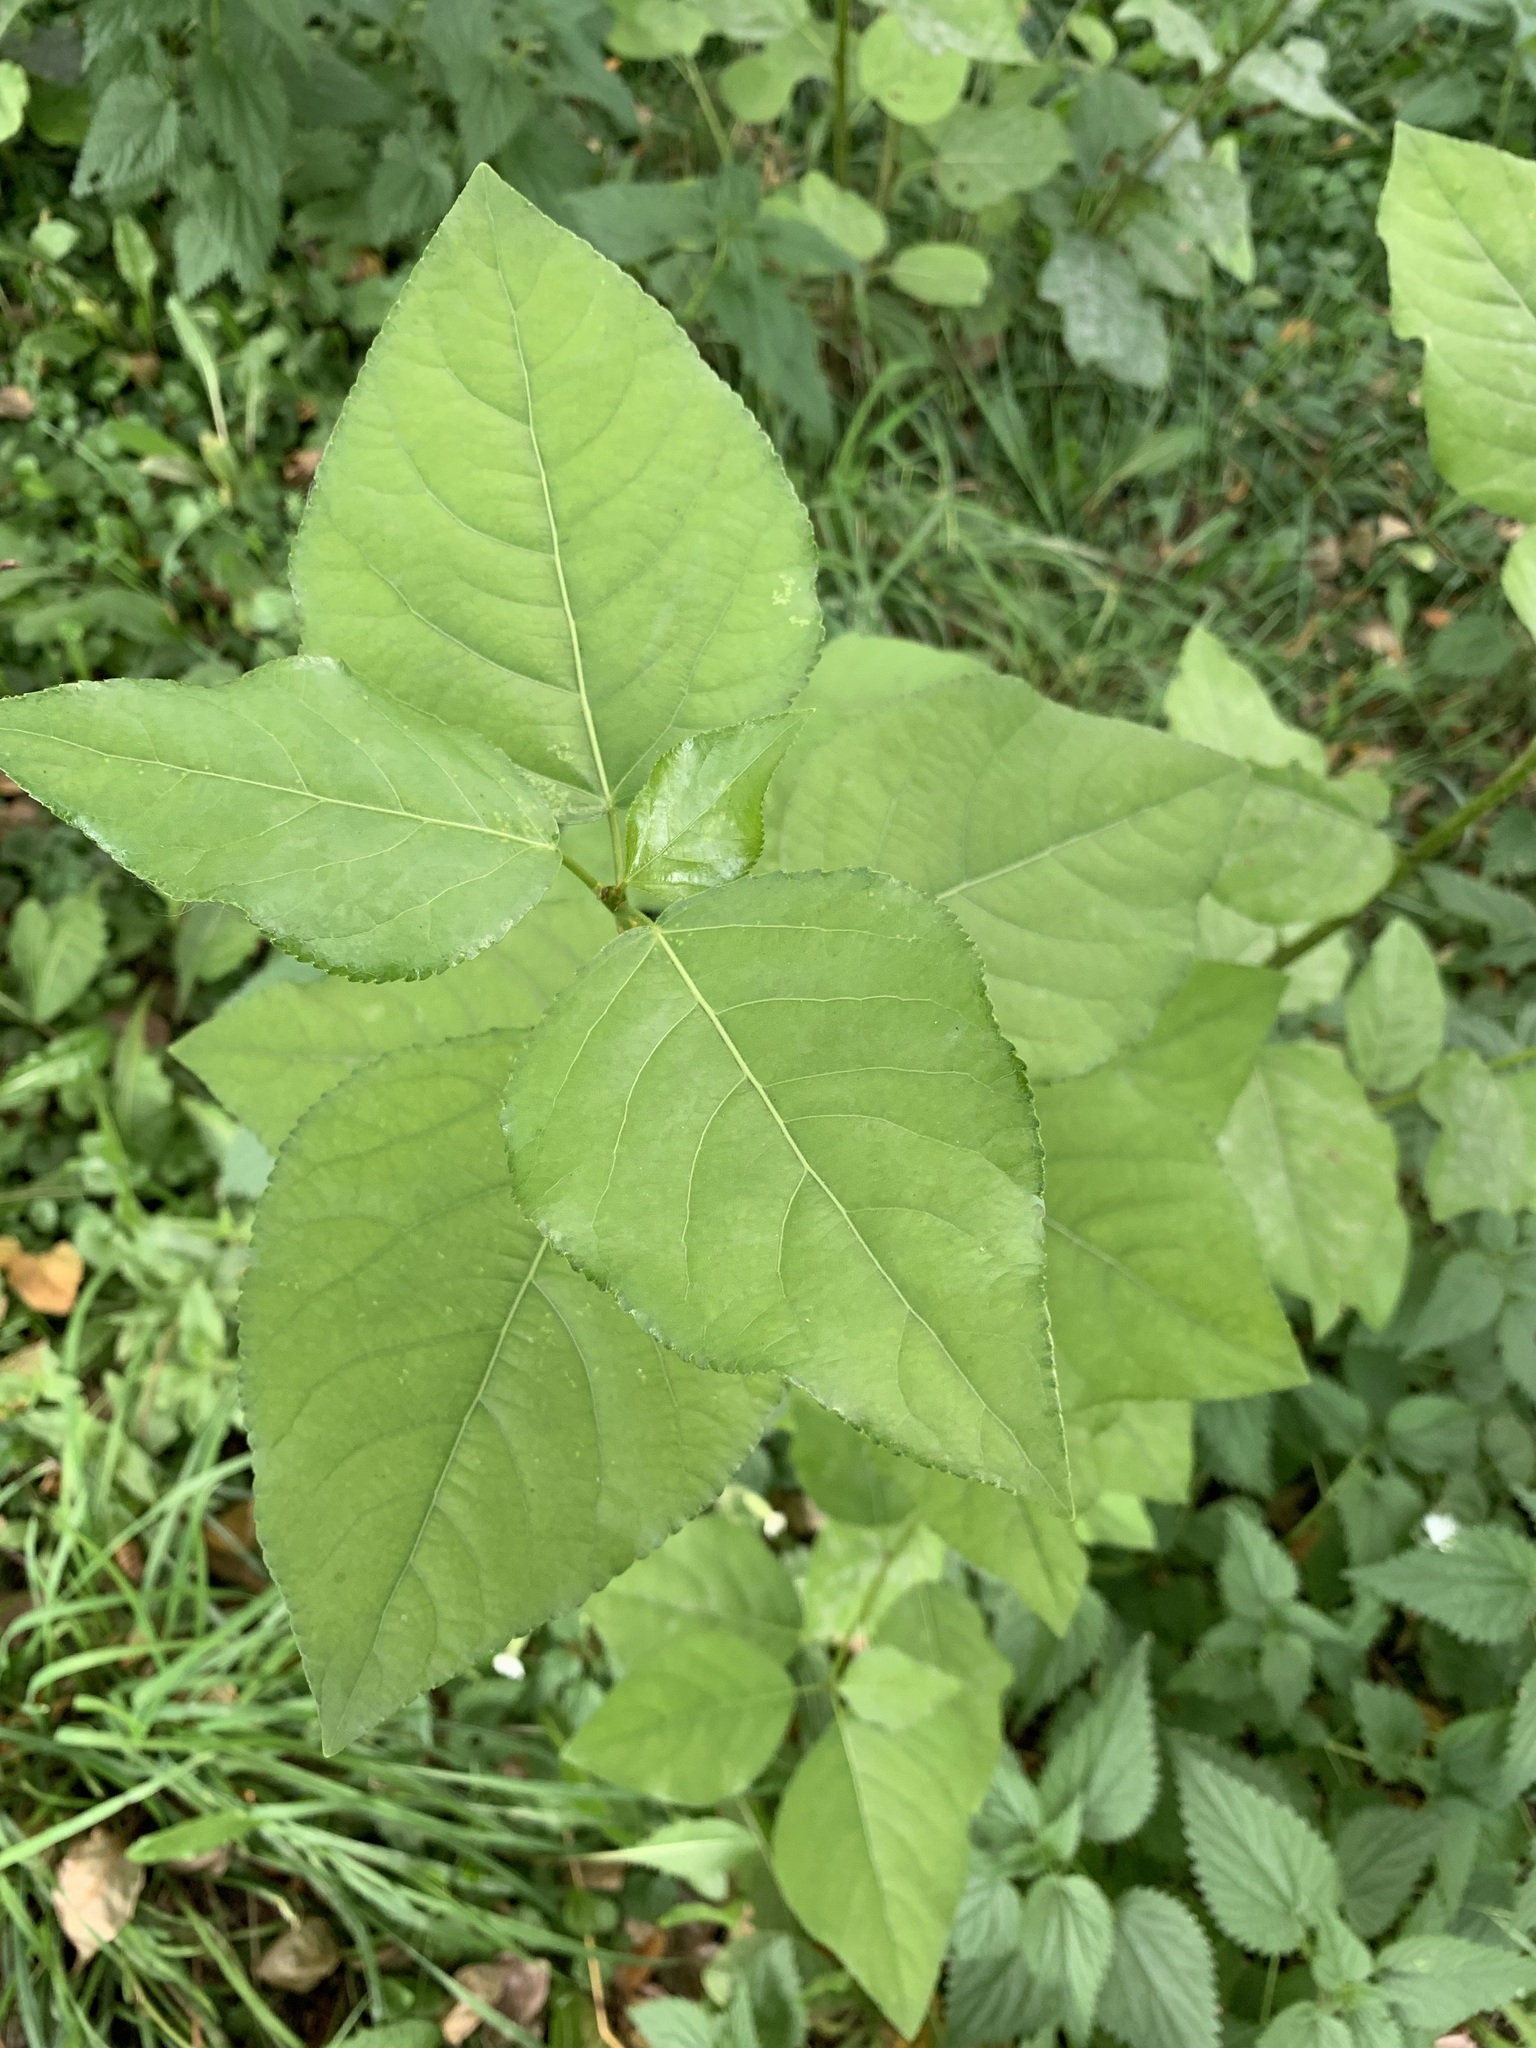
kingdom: Plantae
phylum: Tracheophyta
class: Magnoliopsida
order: Malpighiales
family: Salicaceae
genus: Populus
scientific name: Populus sibirica
